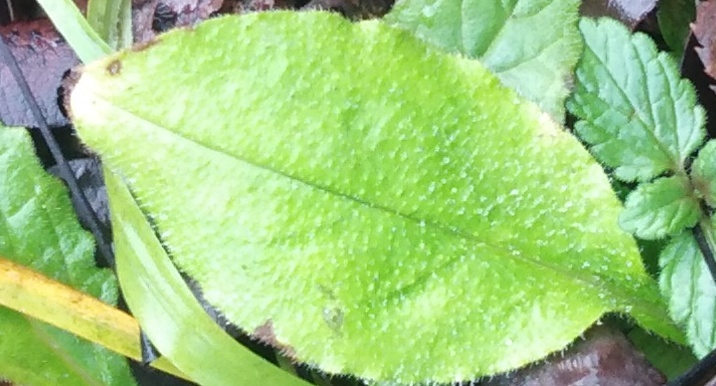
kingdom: Plantae
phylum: Tracheophyta
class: Magnoliopsida
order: Boraginales
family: Boraginaceae
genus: Pulmonaria
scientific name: Pulmonaria obscura
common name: Suffolk lungwort
